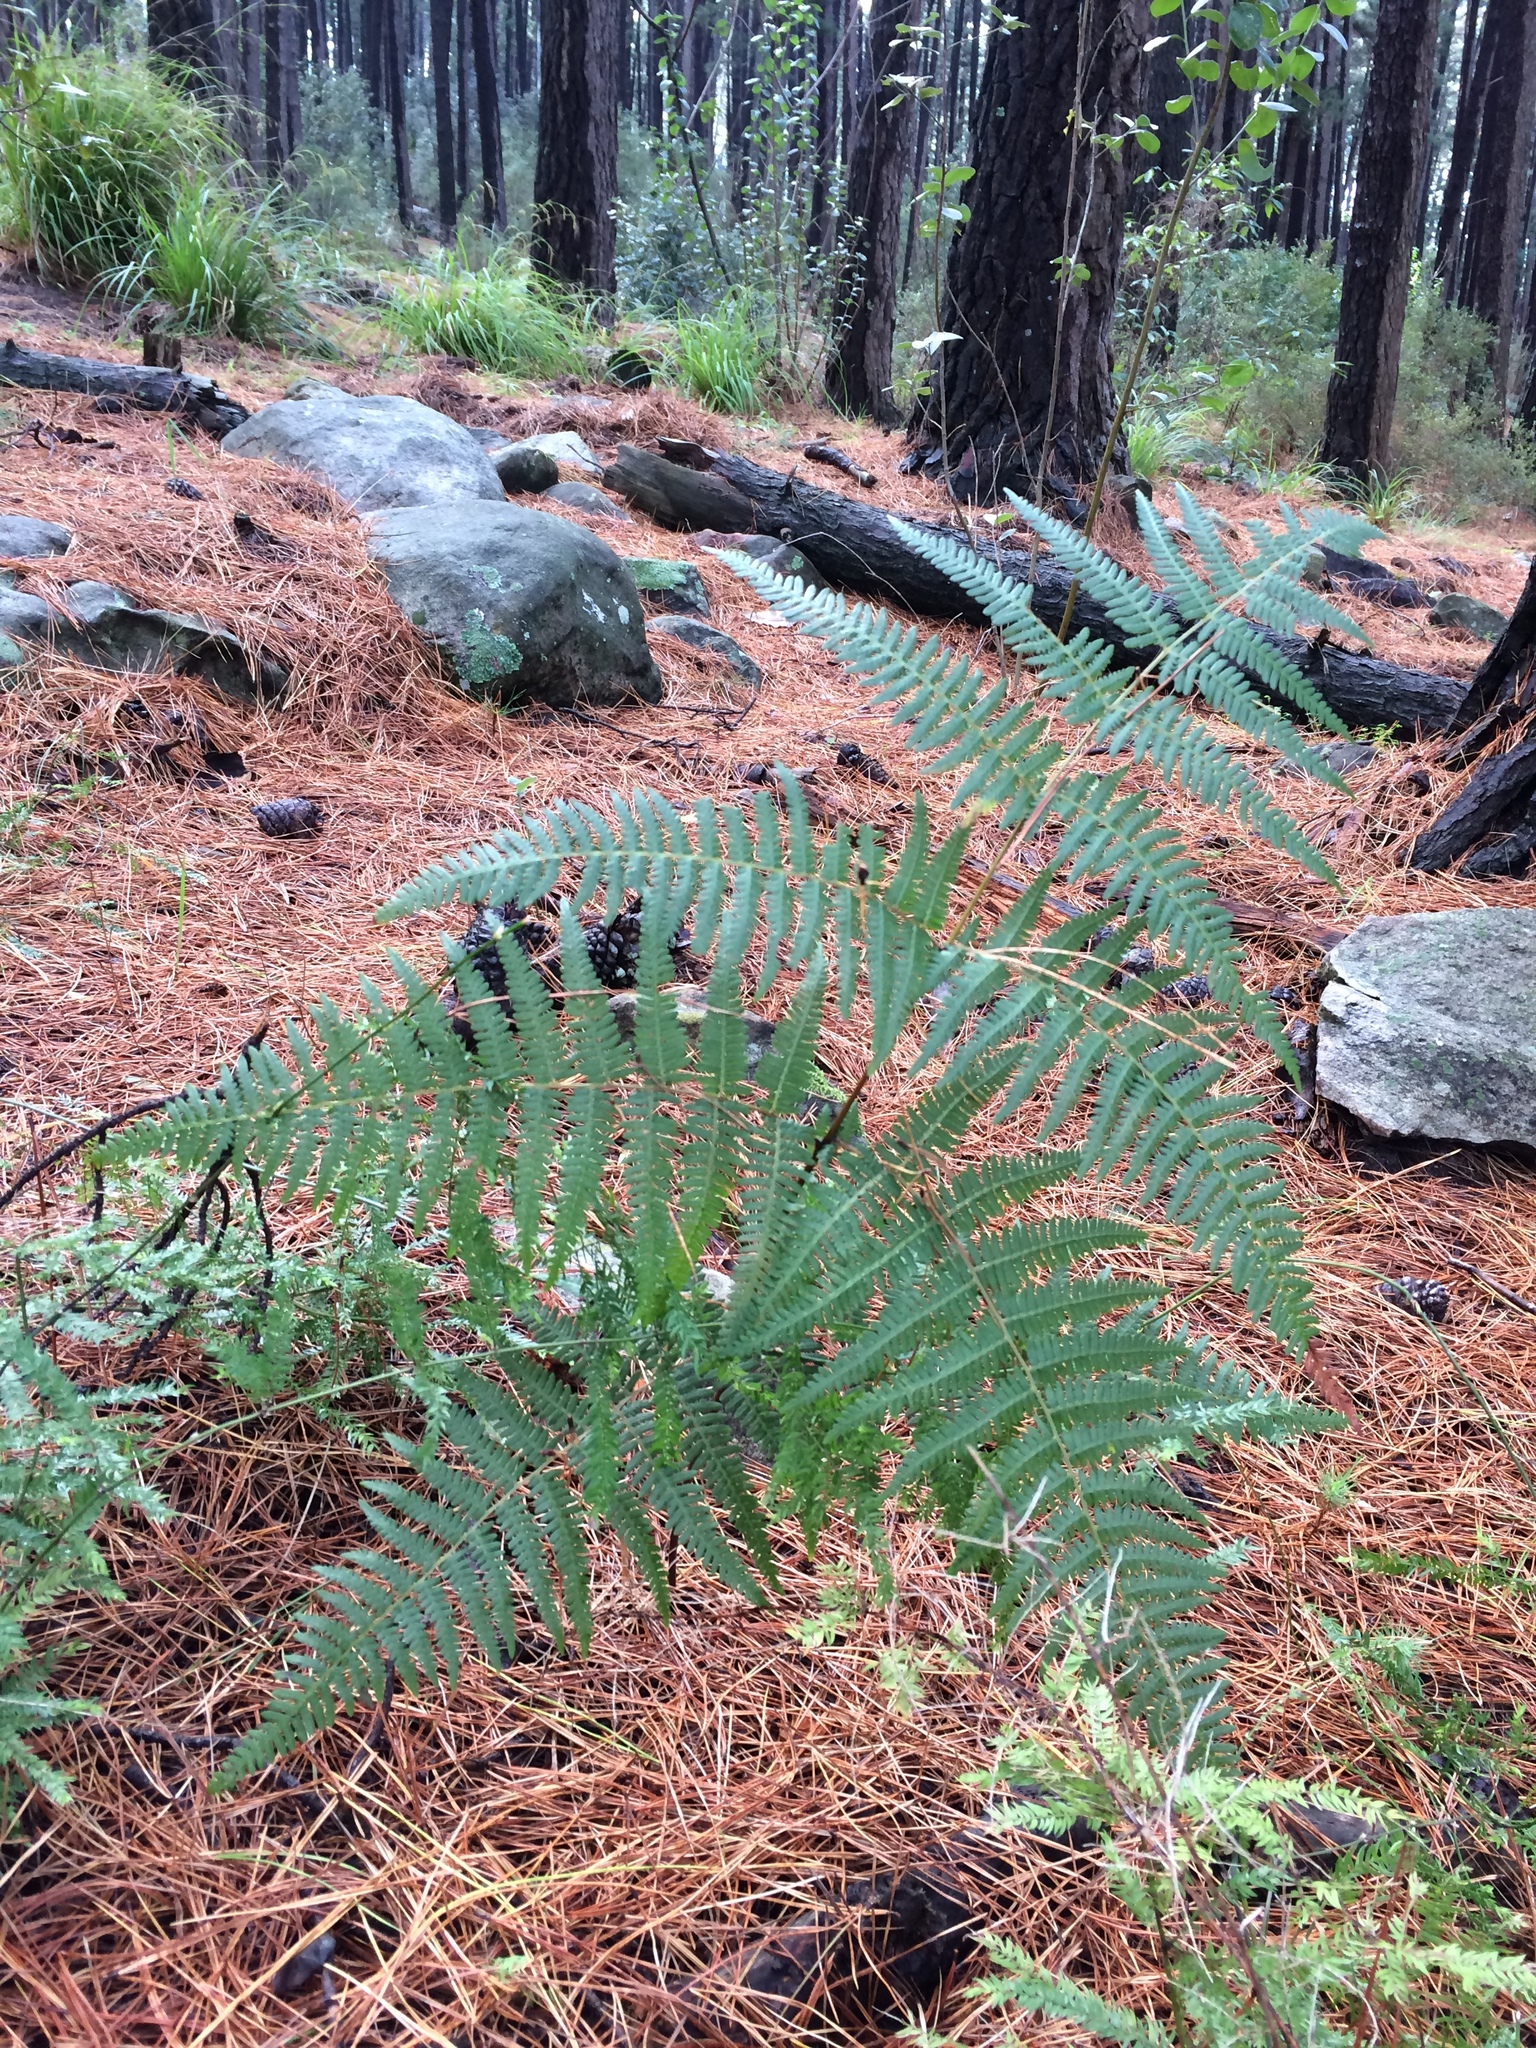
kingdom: Plantae
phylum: Tracheophyta
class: Polypodiopsida
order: Polypodiales
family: Dennstaedtiaceae
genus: Pteridium
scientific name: Pteridium aquilinum
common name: Bracken
